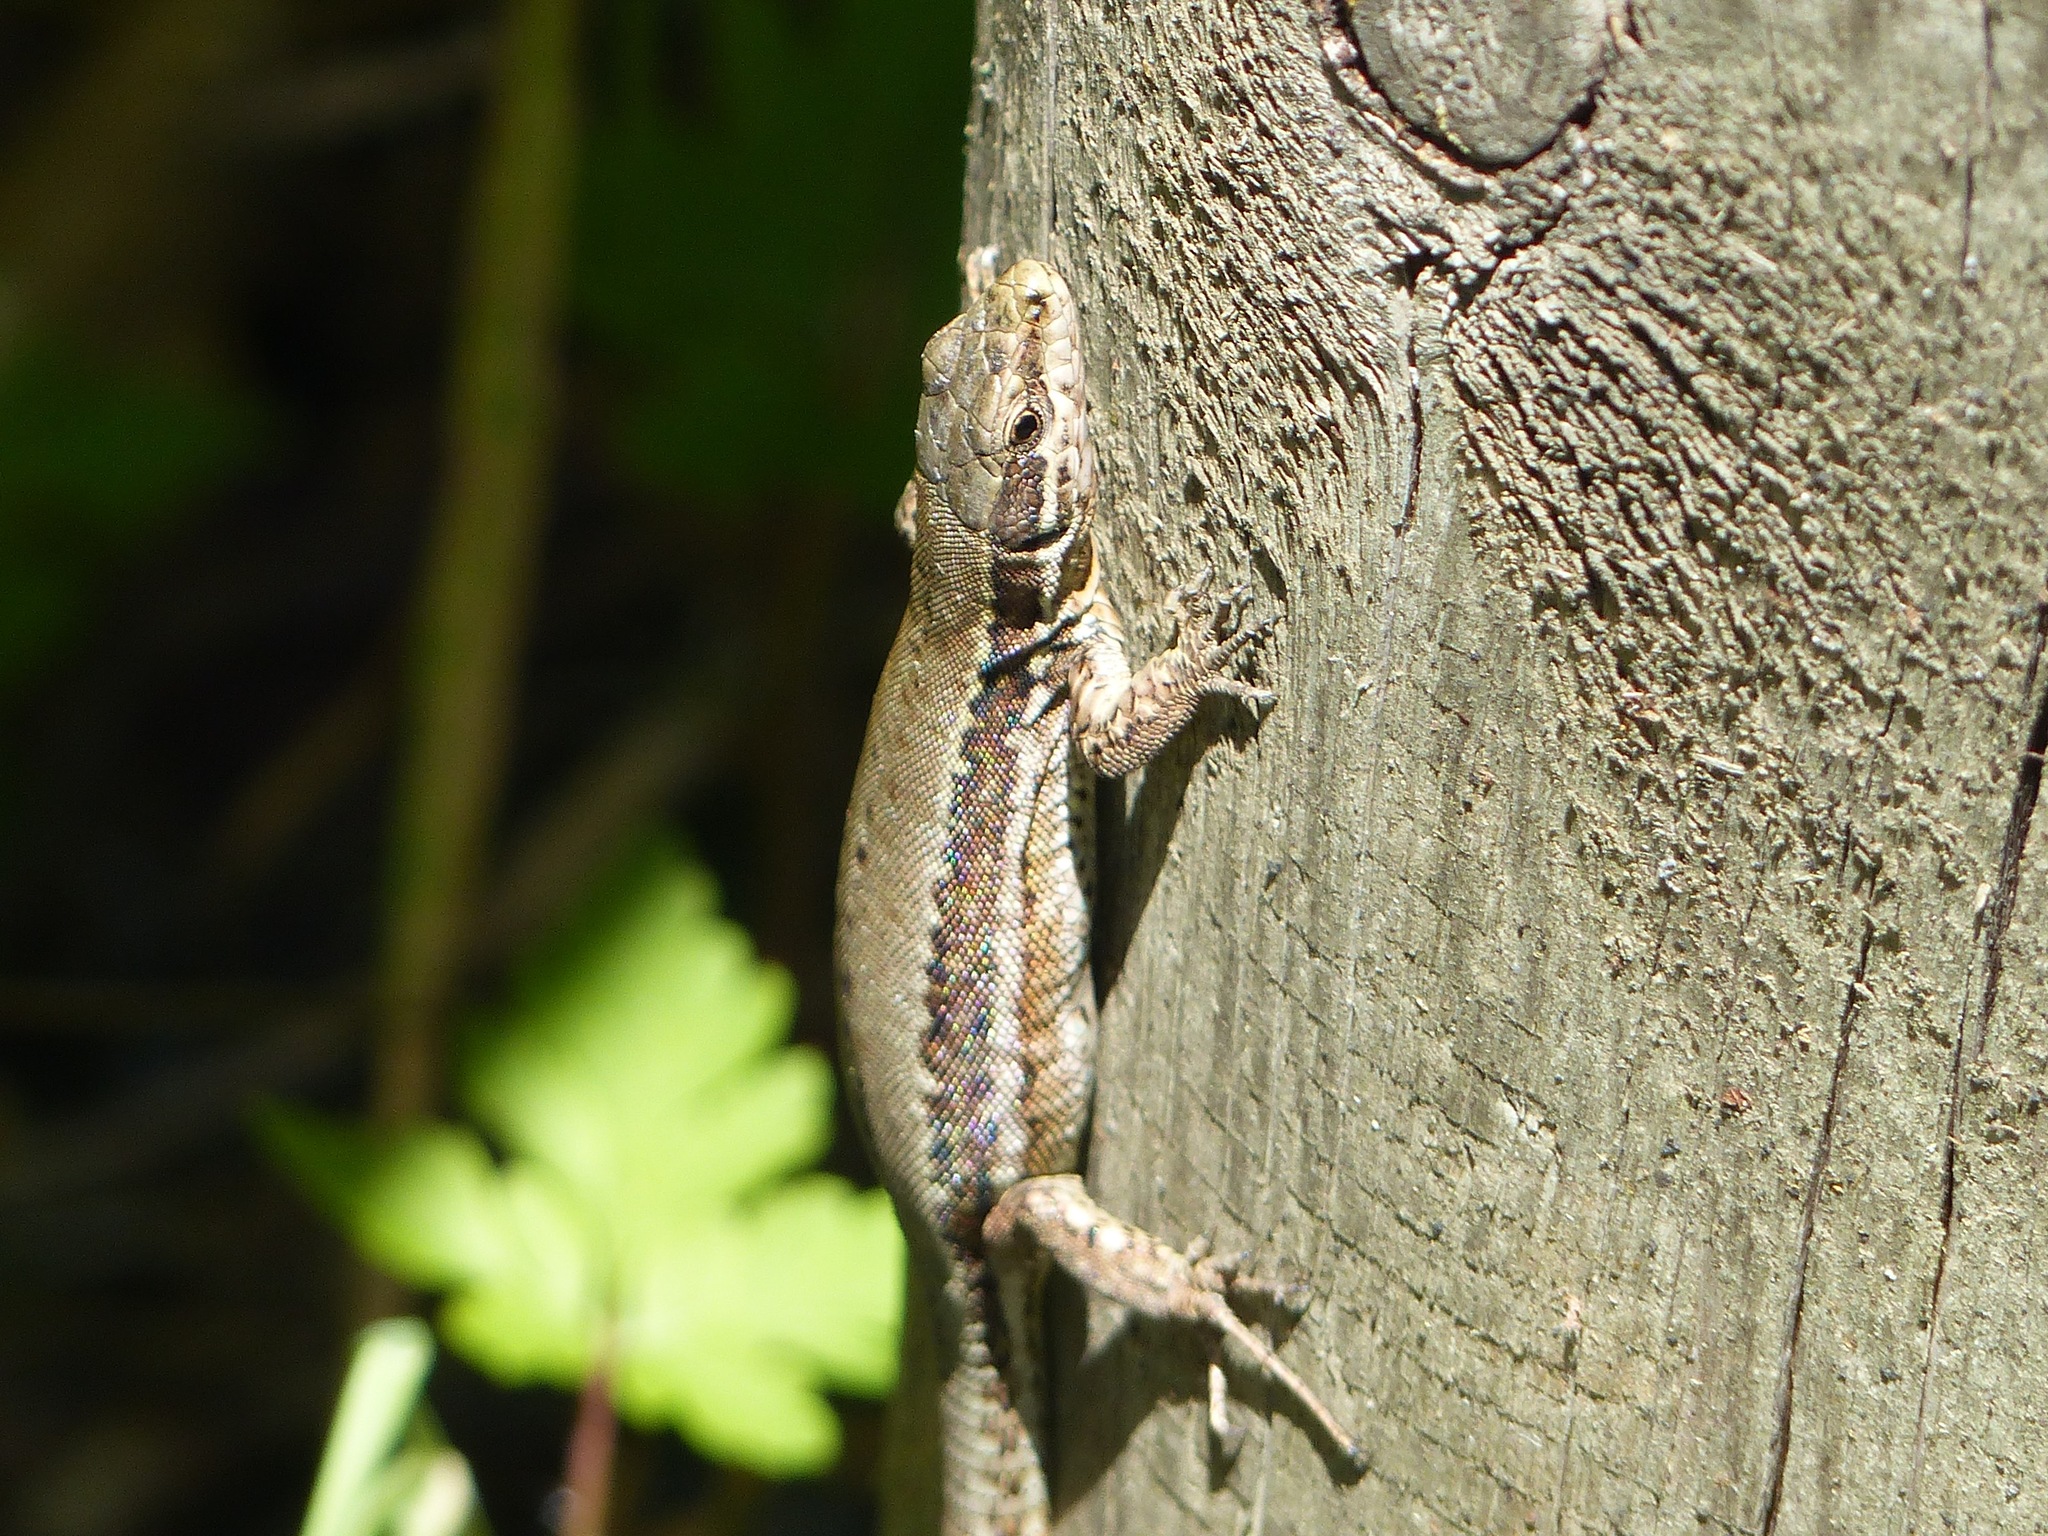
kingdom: Animalia
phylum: Chordata
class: Squamata
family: Lacertidae
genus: Podarcis
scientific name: Podarcis muralis
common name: Common wall lizard
